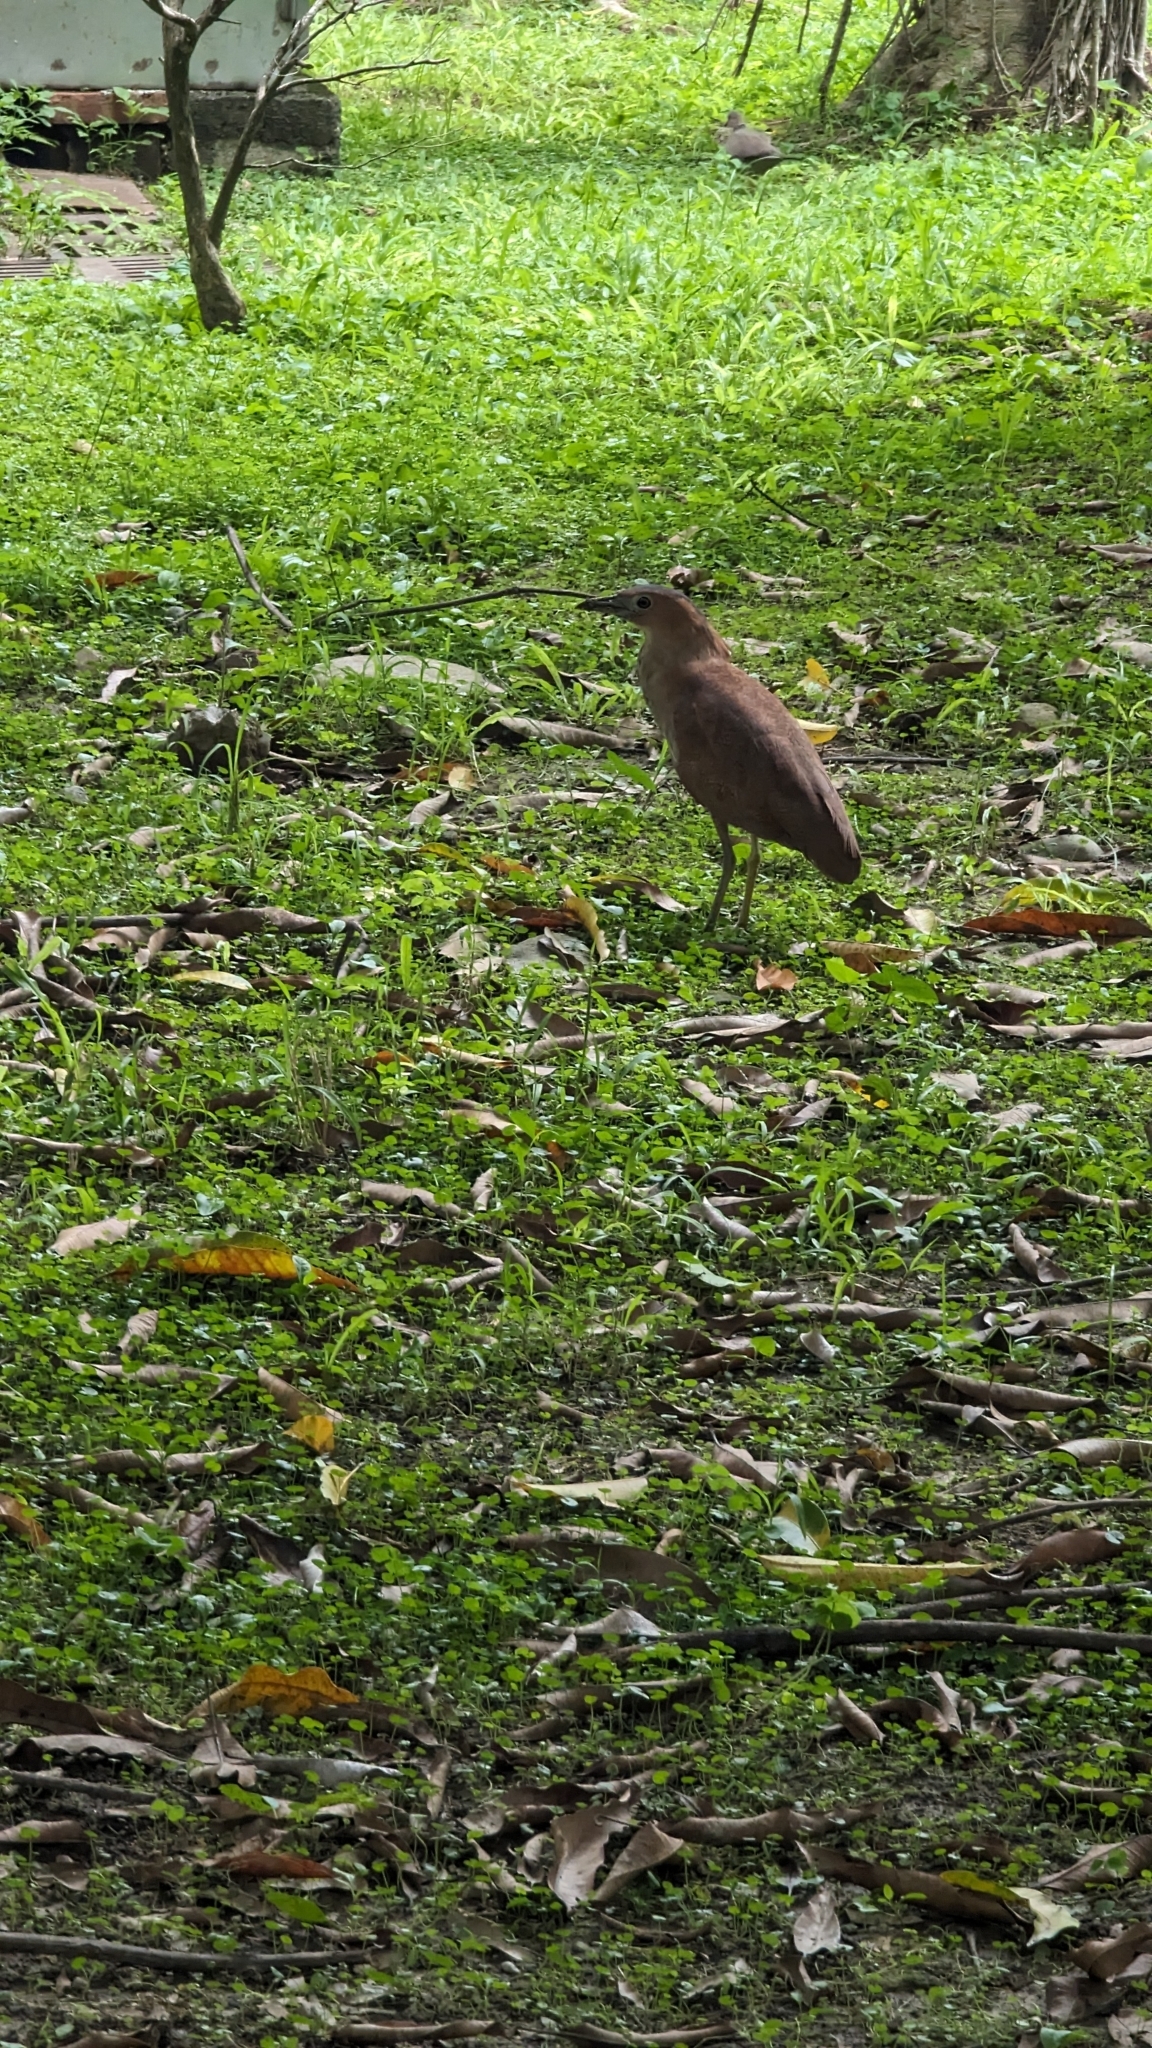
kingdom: Animalia
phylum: Chordata
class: Aves
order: Pelecaniformes
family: Ardeidae
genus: Gorsachius
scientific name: Gorsachius melanolophus
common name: Malayan night heron
